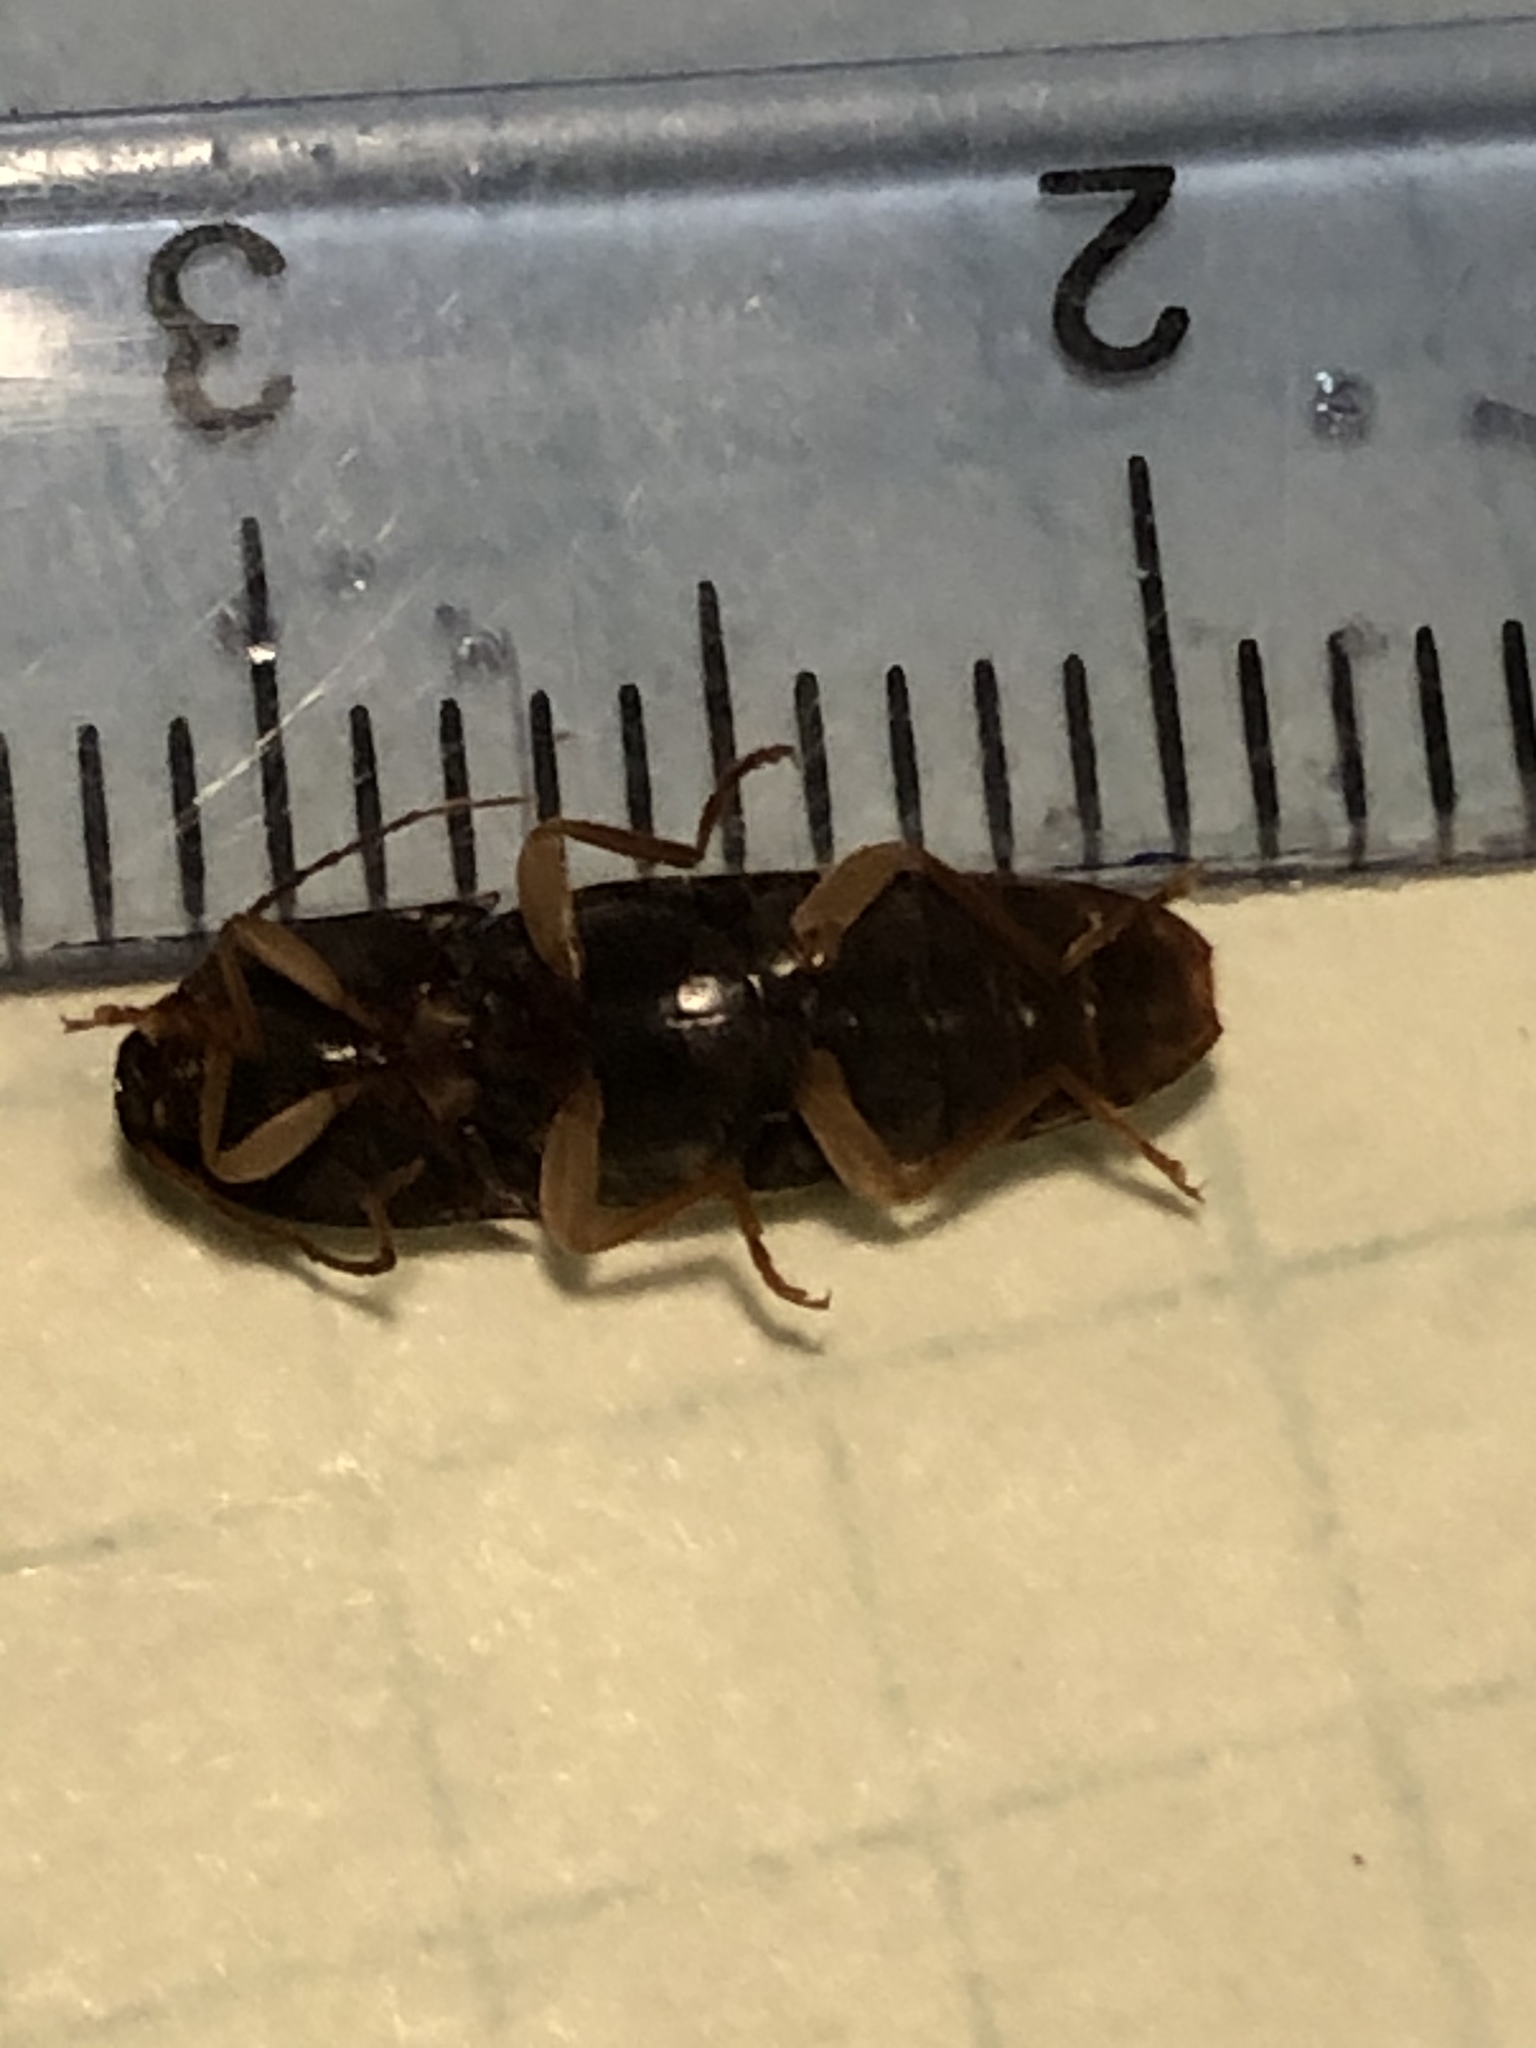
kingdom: Animalia
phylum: Arthropoda
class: Insecta
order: Coleoptera
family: Elateridae
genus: Conoderus
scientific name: Conoderus exsul
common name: Click beetle
